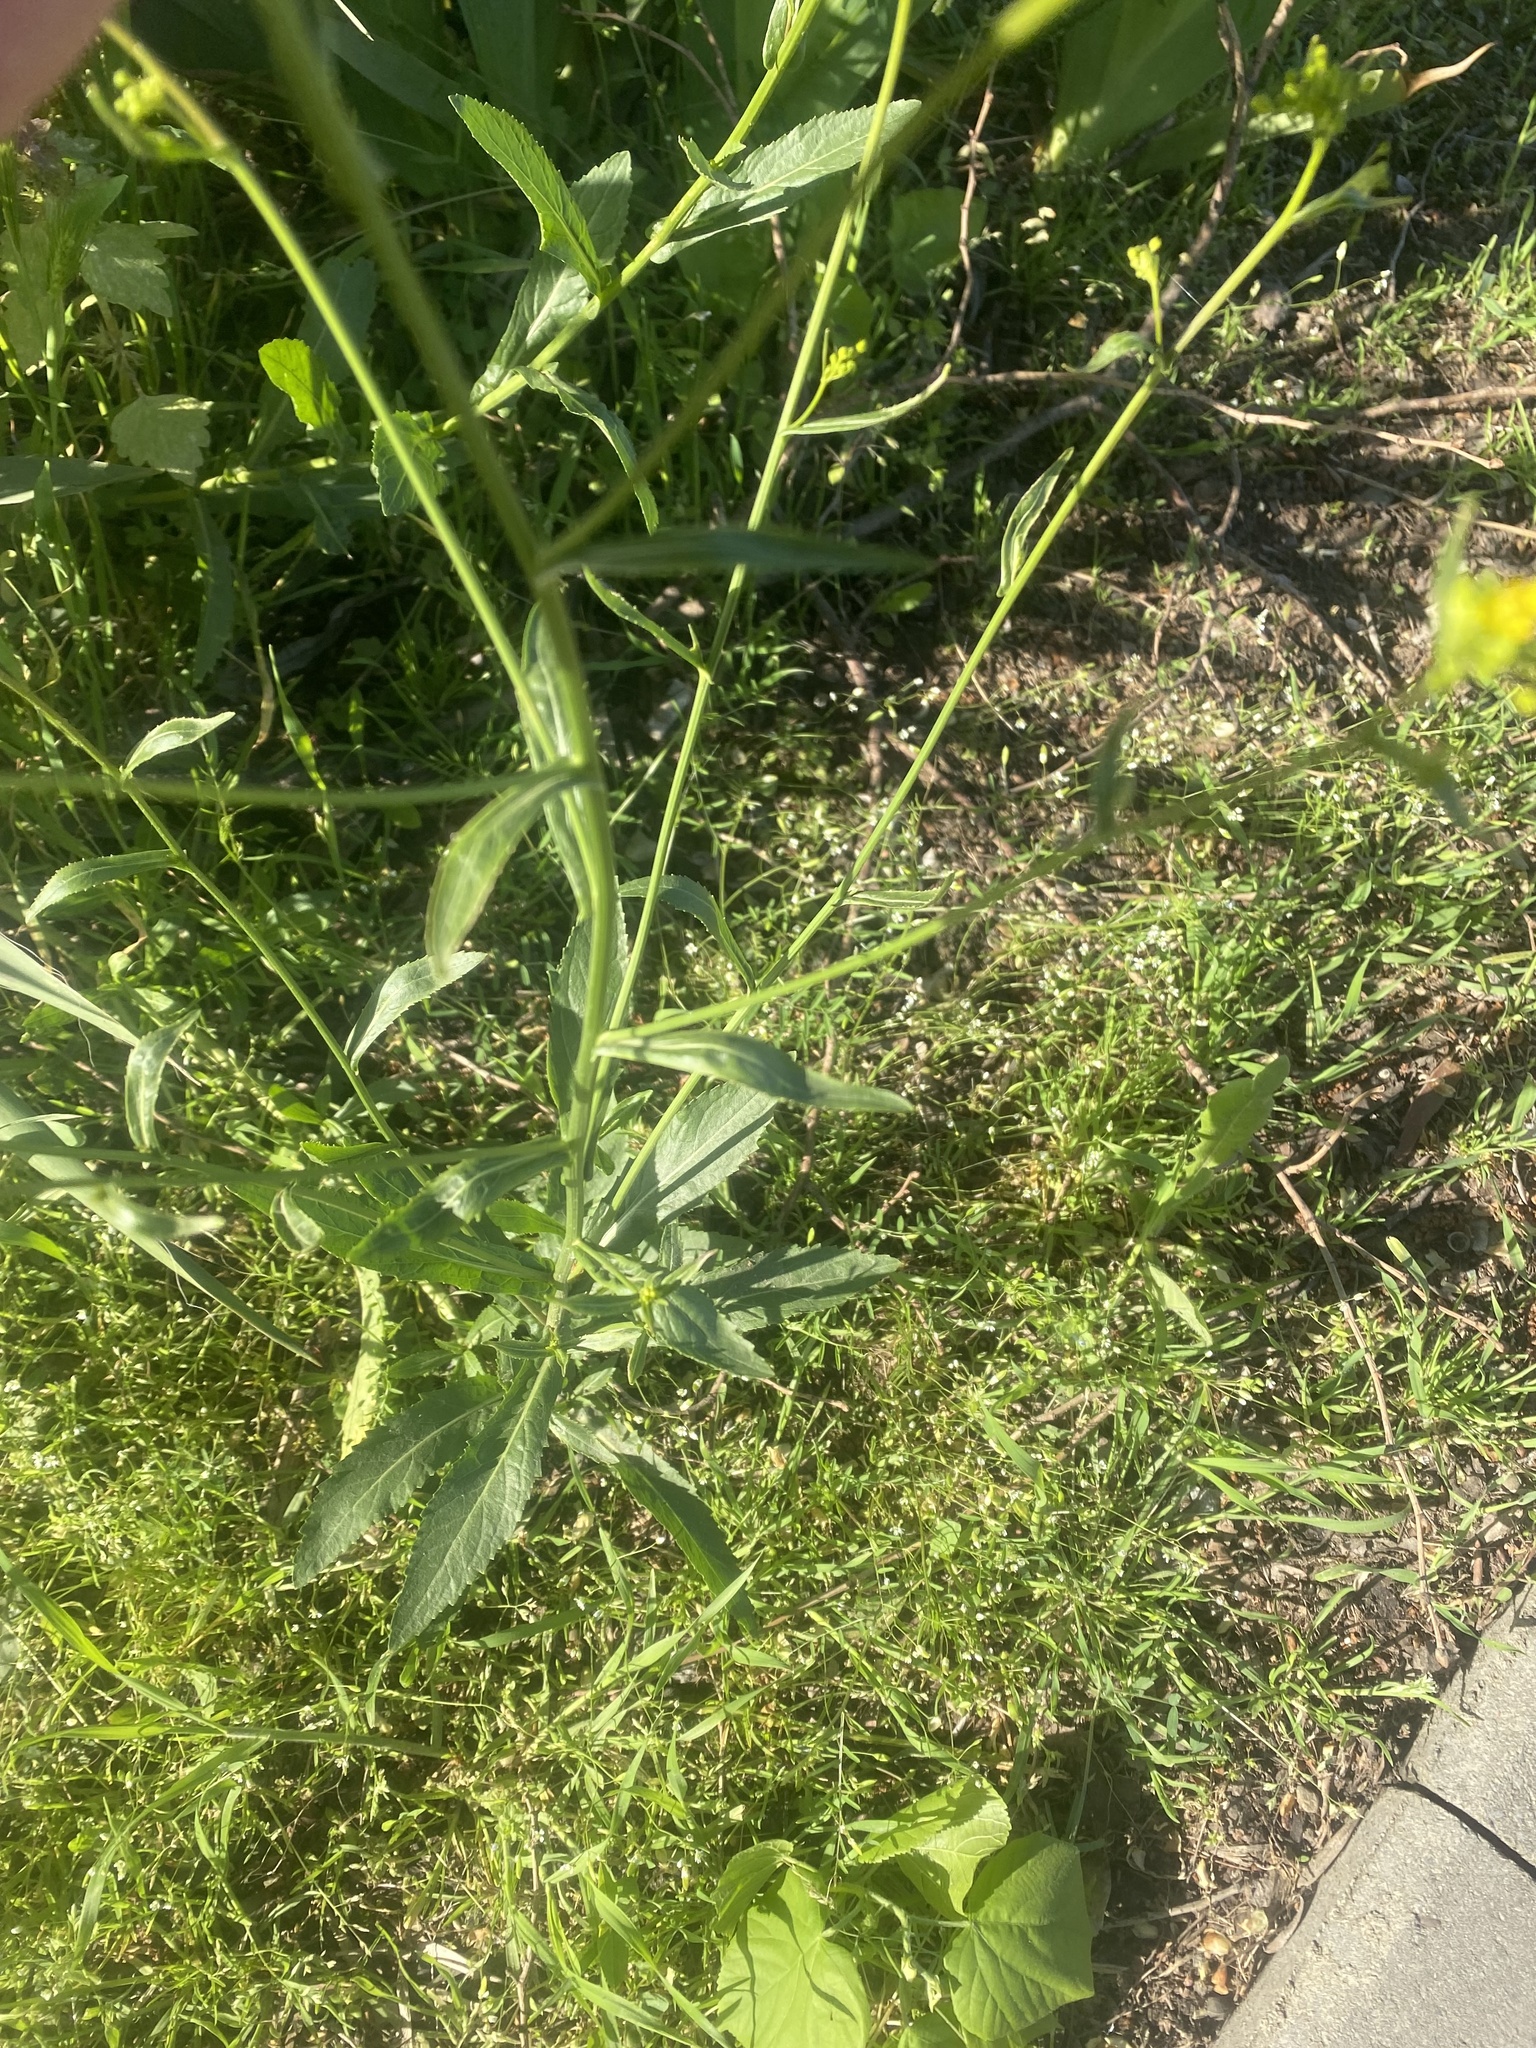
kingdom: Plantae
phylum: Tracheophyta
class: Magnoliopsida
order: Brassicales
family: Brassicaceae
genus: Rorippa
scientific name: Rorippa austriaca
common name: Austrian yellow-cress
